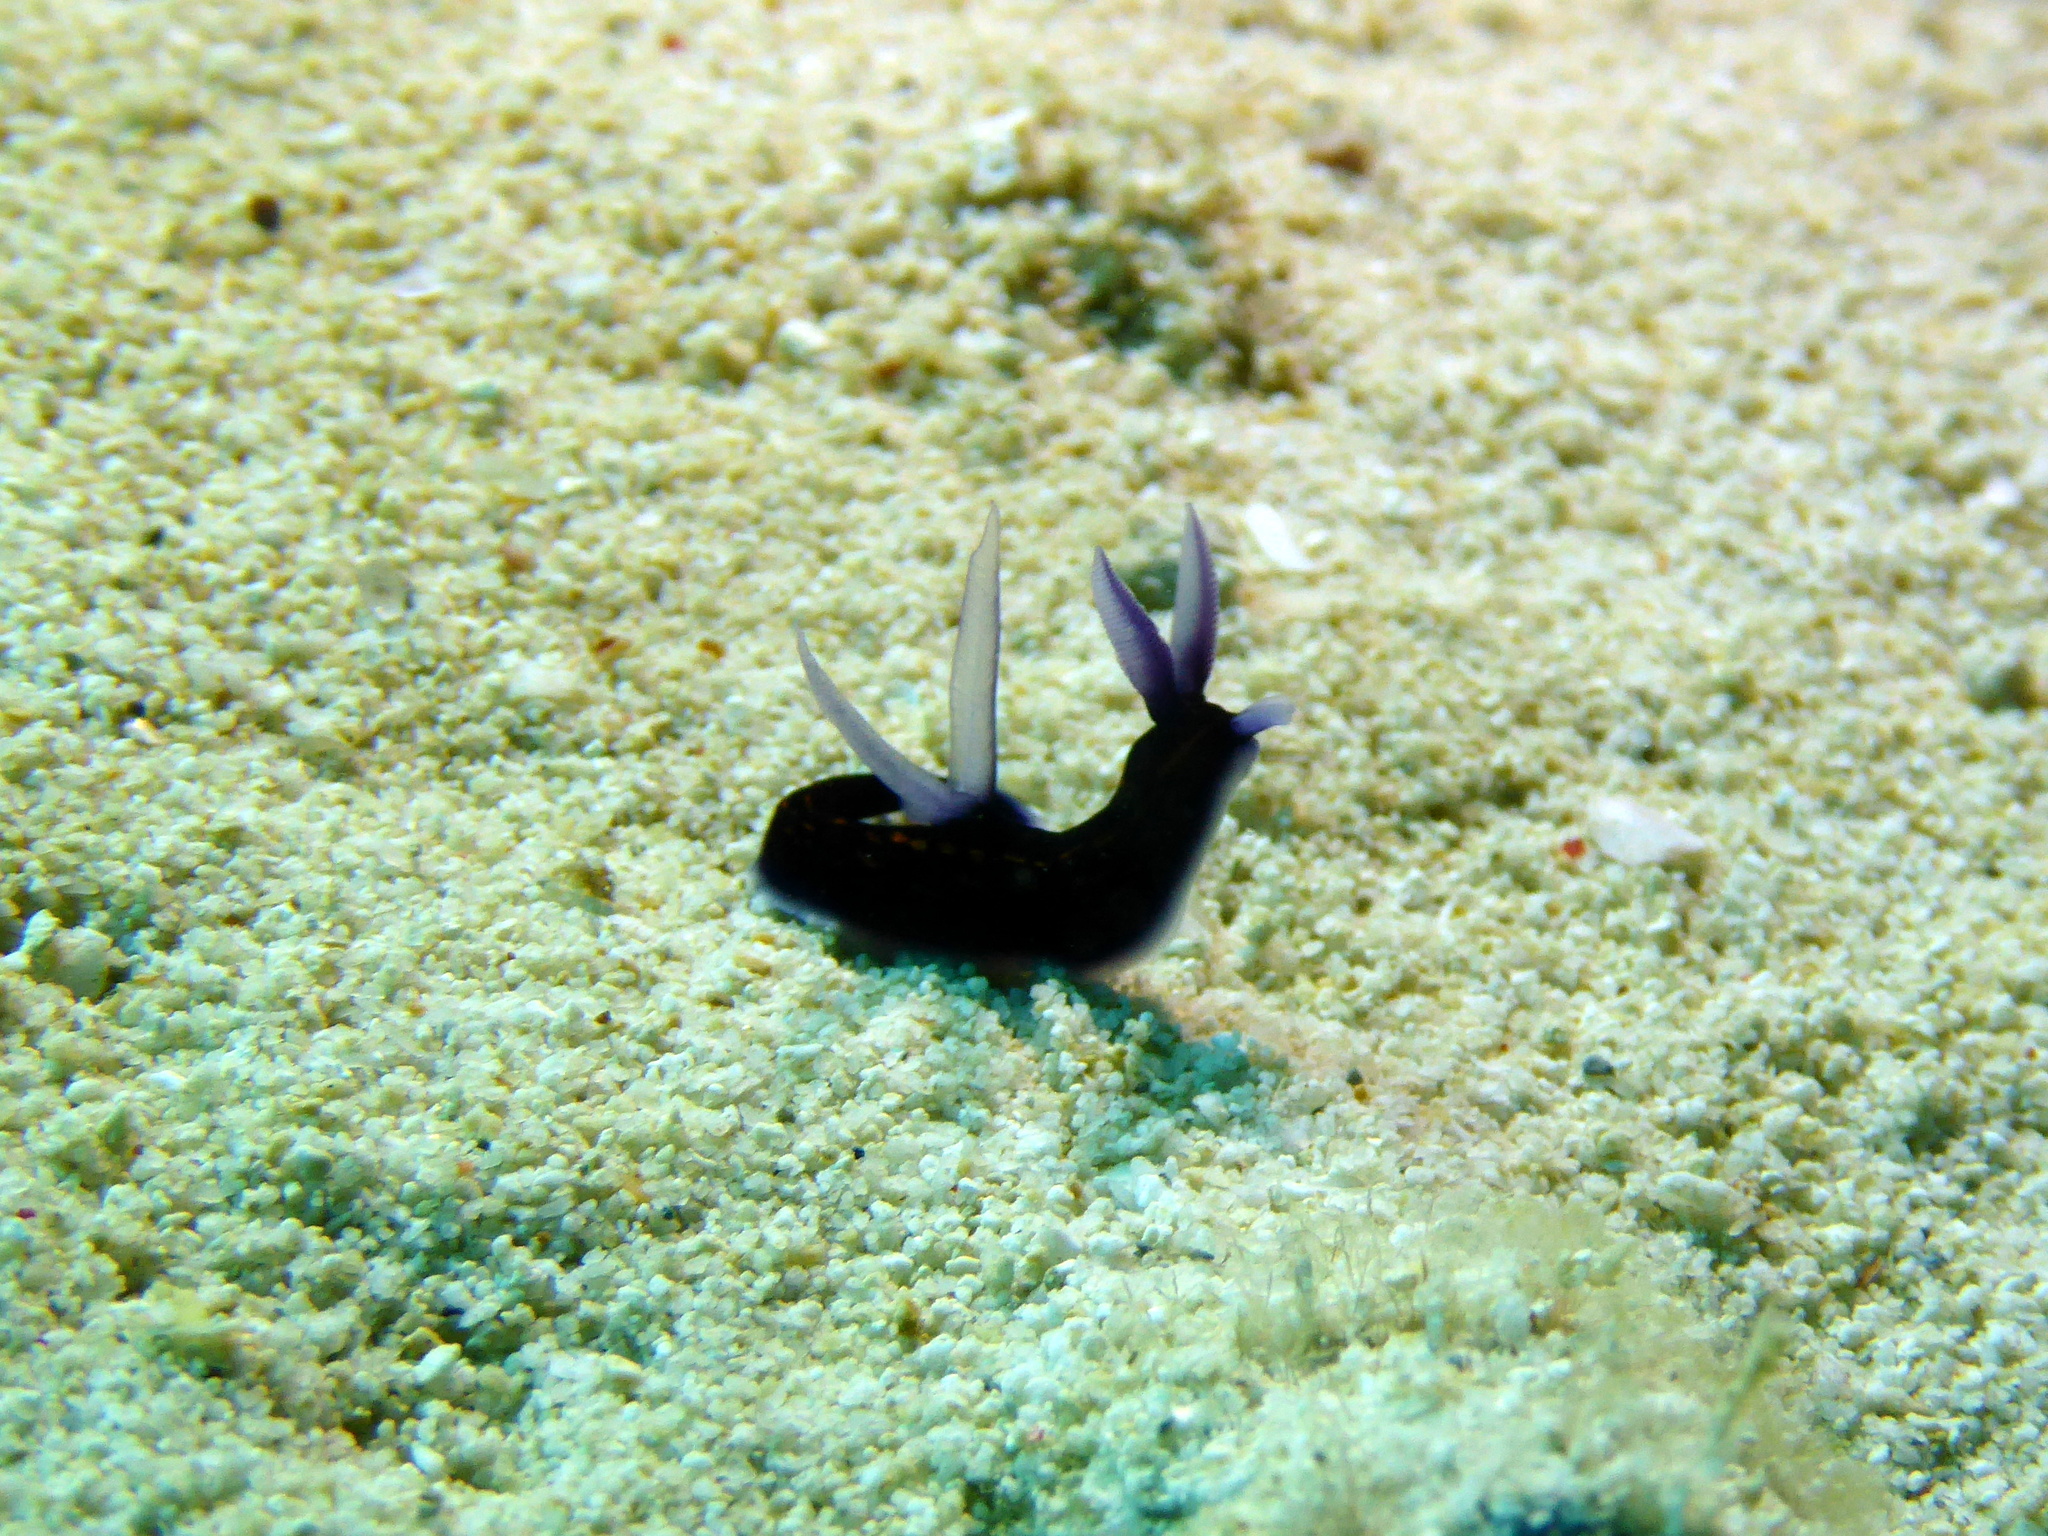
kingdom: Animalia
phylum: Mollusca
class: Gastropoda
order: Nudibranchia
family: Polyceridae
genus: Roboastra
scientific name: Roboastra gracilis
